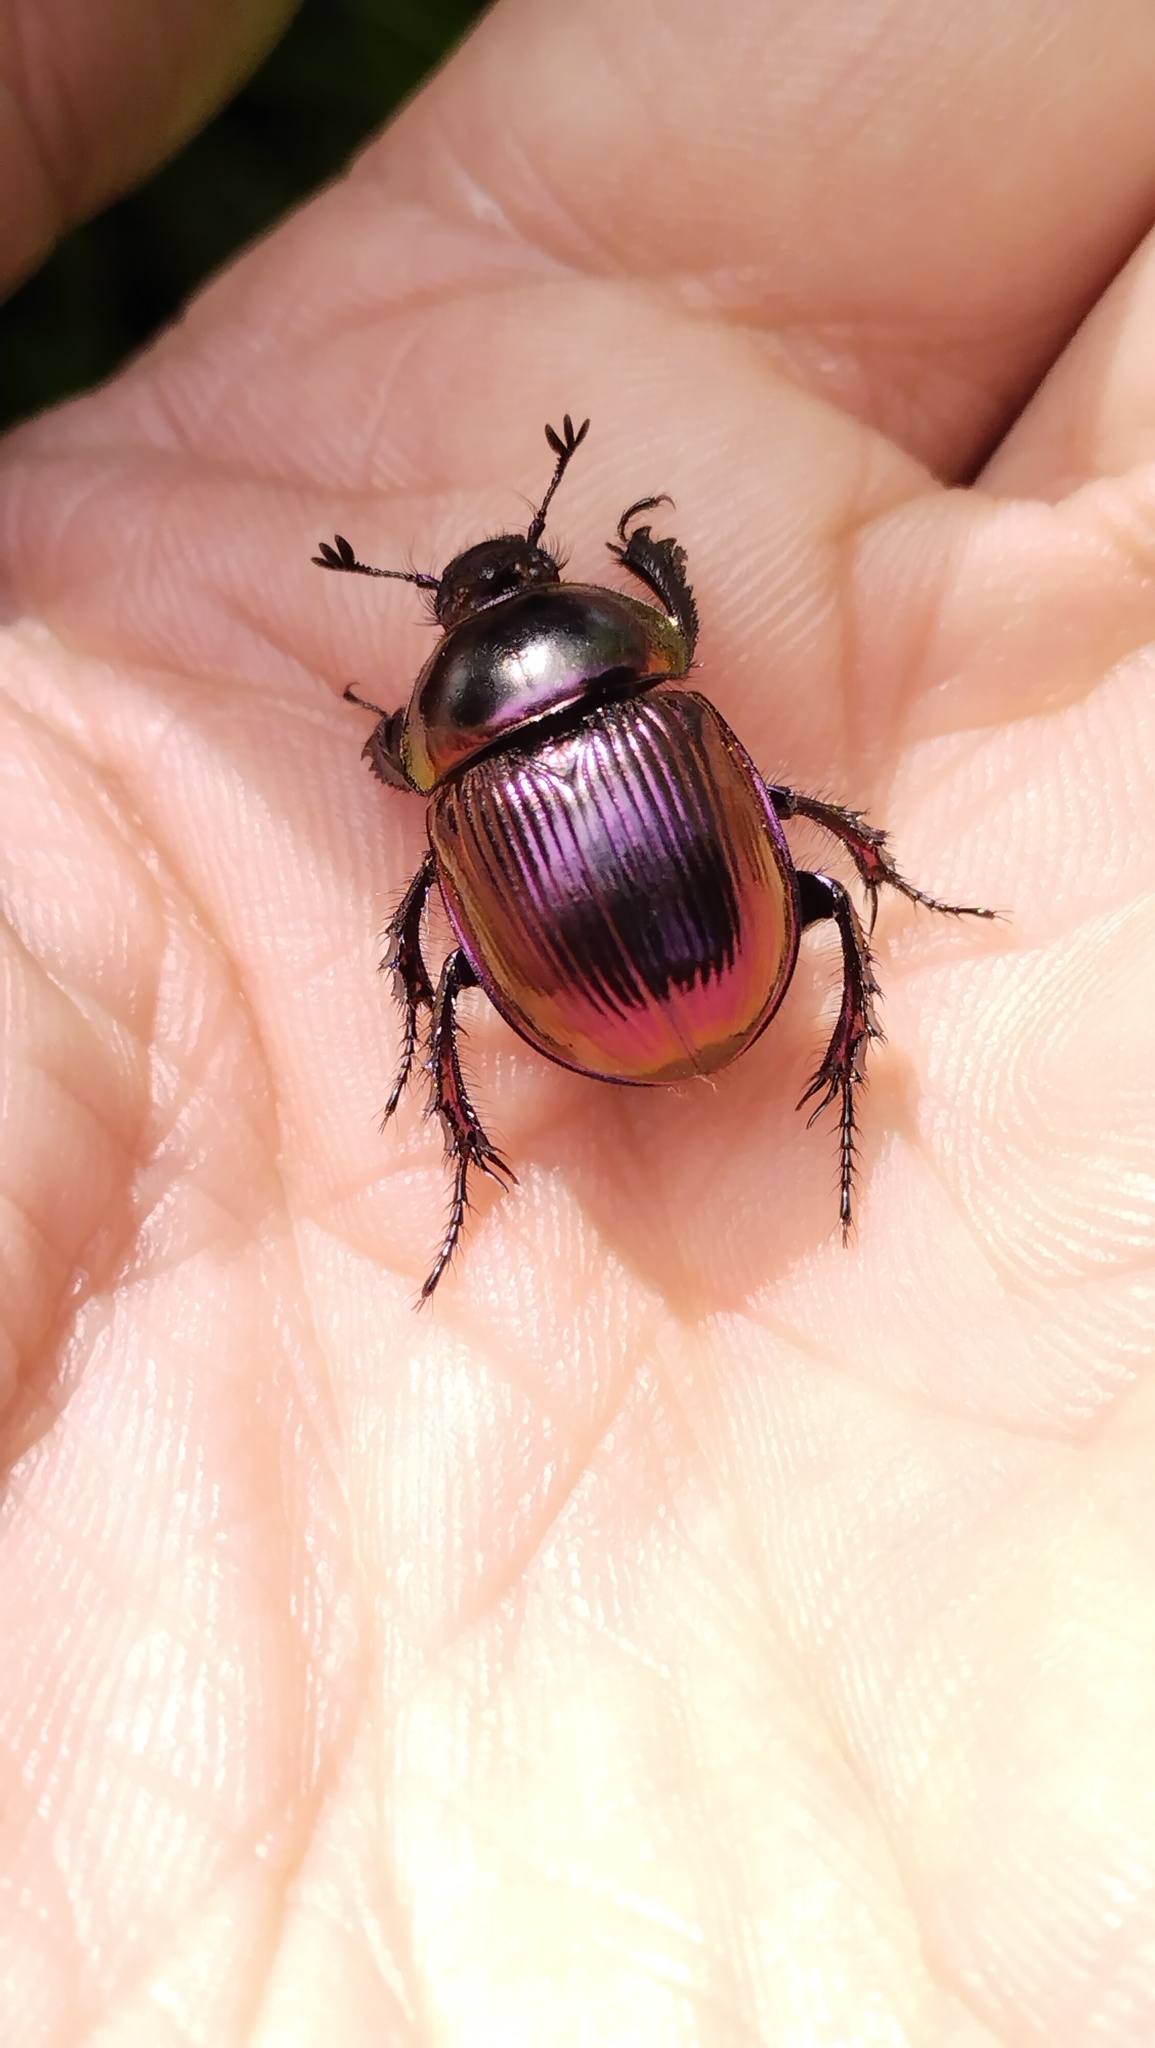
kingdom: Animalia
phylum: Arthropoda
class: Insecta
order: Coleoptera
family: Geotrupidae
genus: Phelotrupes
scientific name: Phelotrupes auratus
